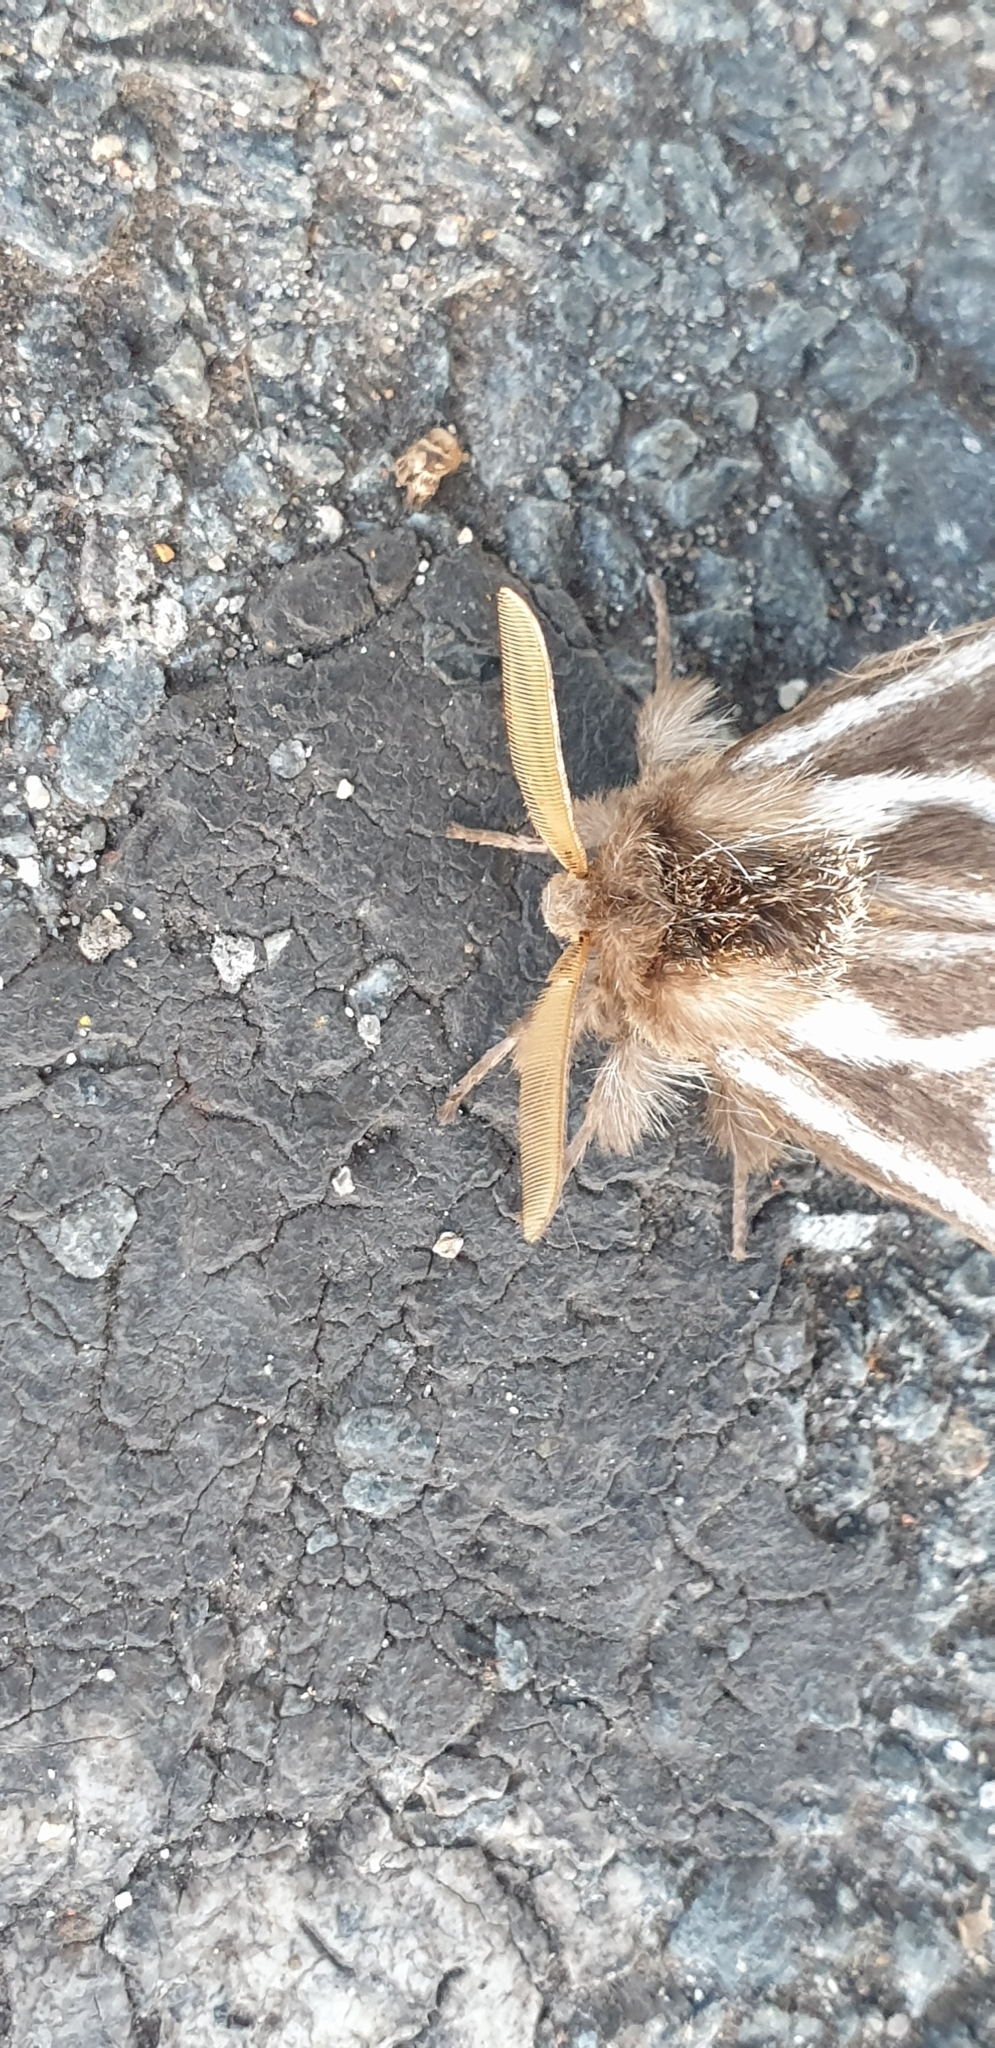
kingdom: Animalia
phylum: Arthropoda
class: Insecta
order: Lepidoptera
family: Notodontidae
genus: Ochrogaster
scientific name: Ochrogaster lunifer
